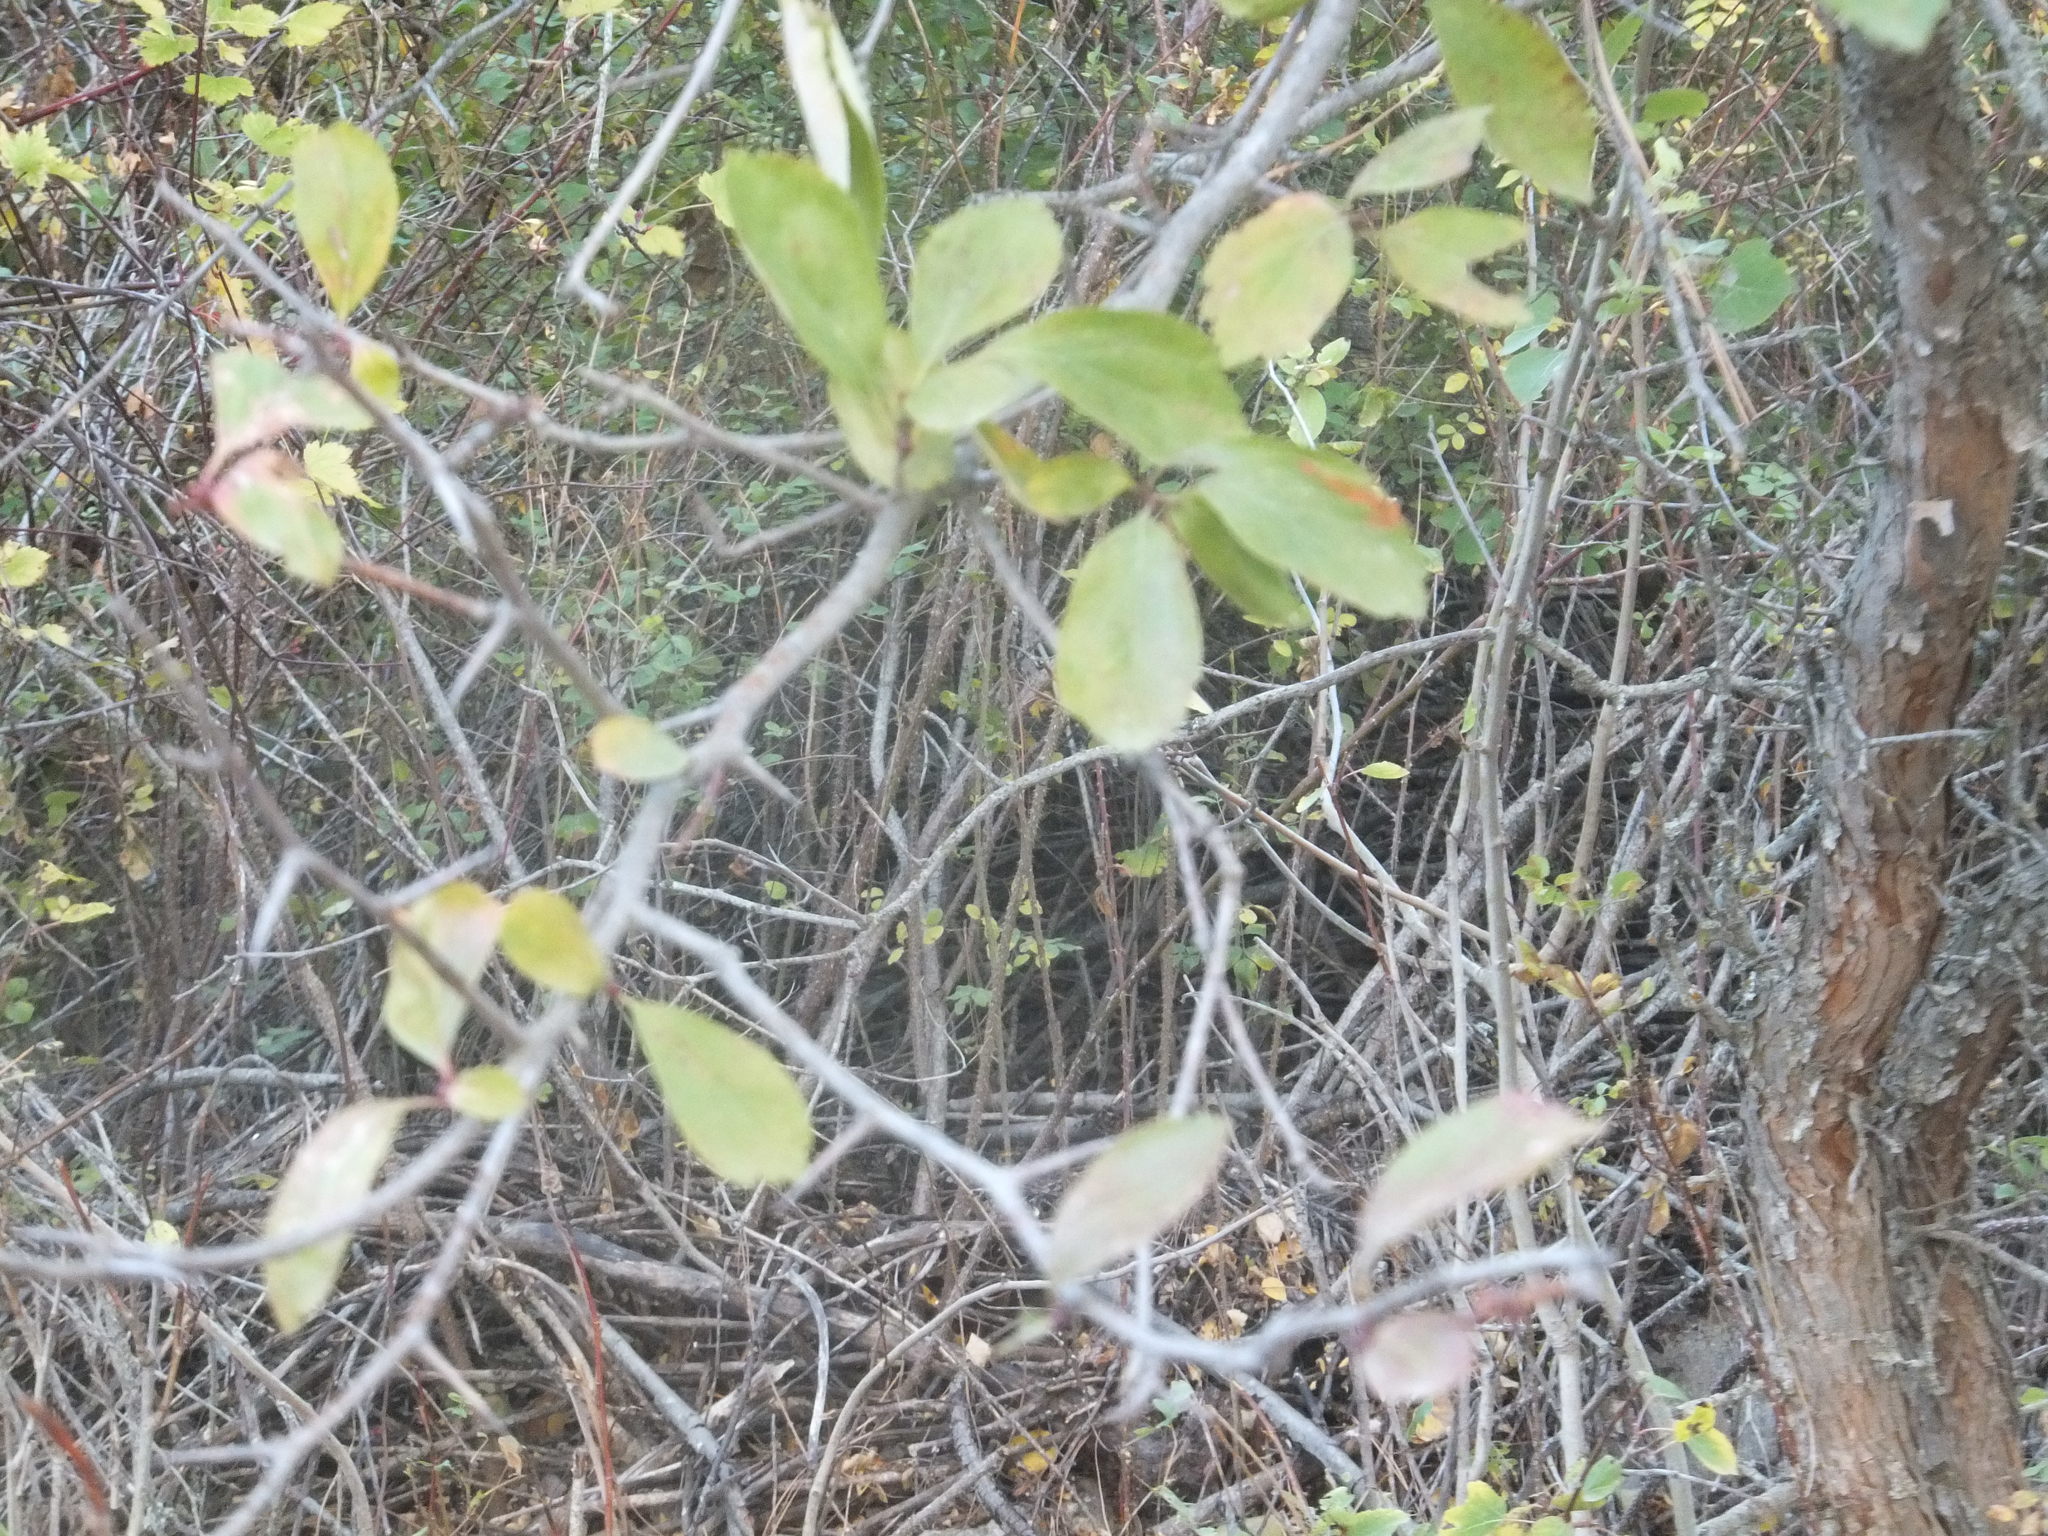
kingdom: Plantae
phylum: Tracheophyta
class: Magnoliopsida
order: Rosales
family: Rosaceae
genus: Crataegus
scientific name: Crataegus
